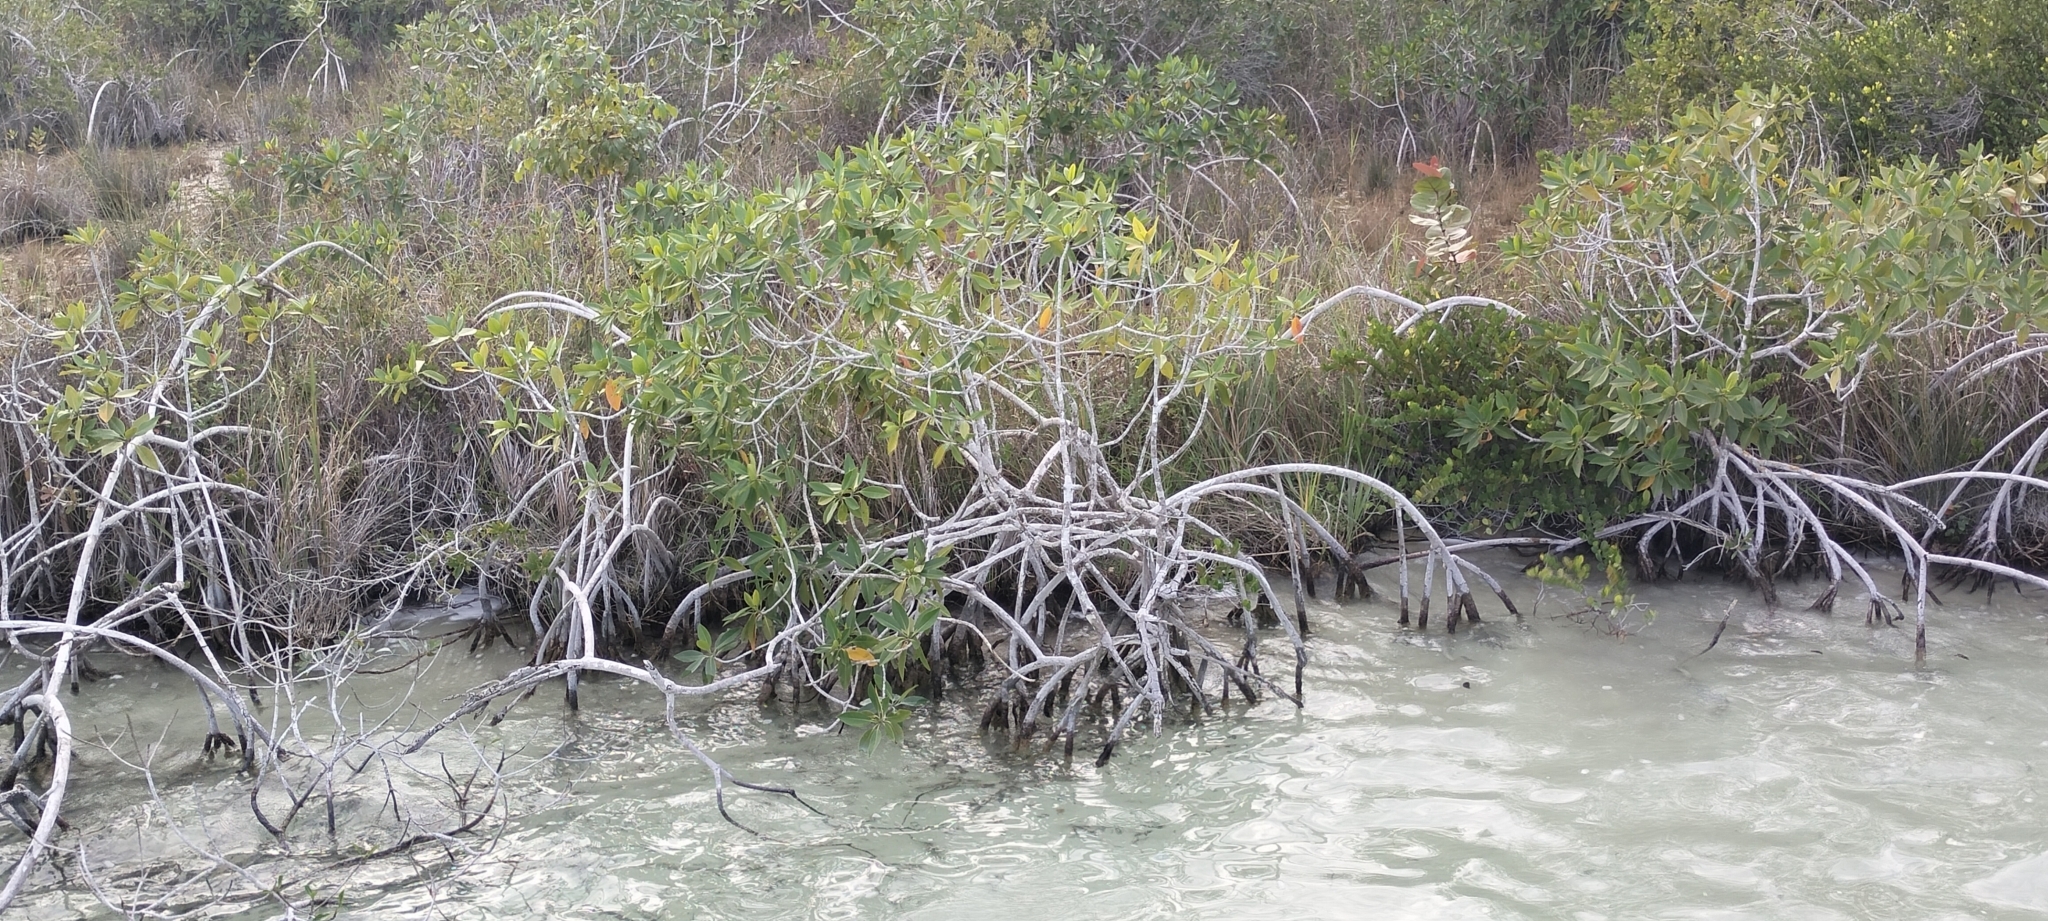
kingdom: Plantae
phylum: Tracheophyta
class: Magnoliopsida
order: Malpighiales
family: Rhizophoraceae
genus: Rhizophora
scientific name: Rhizophora mangle
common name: Red mangrove
